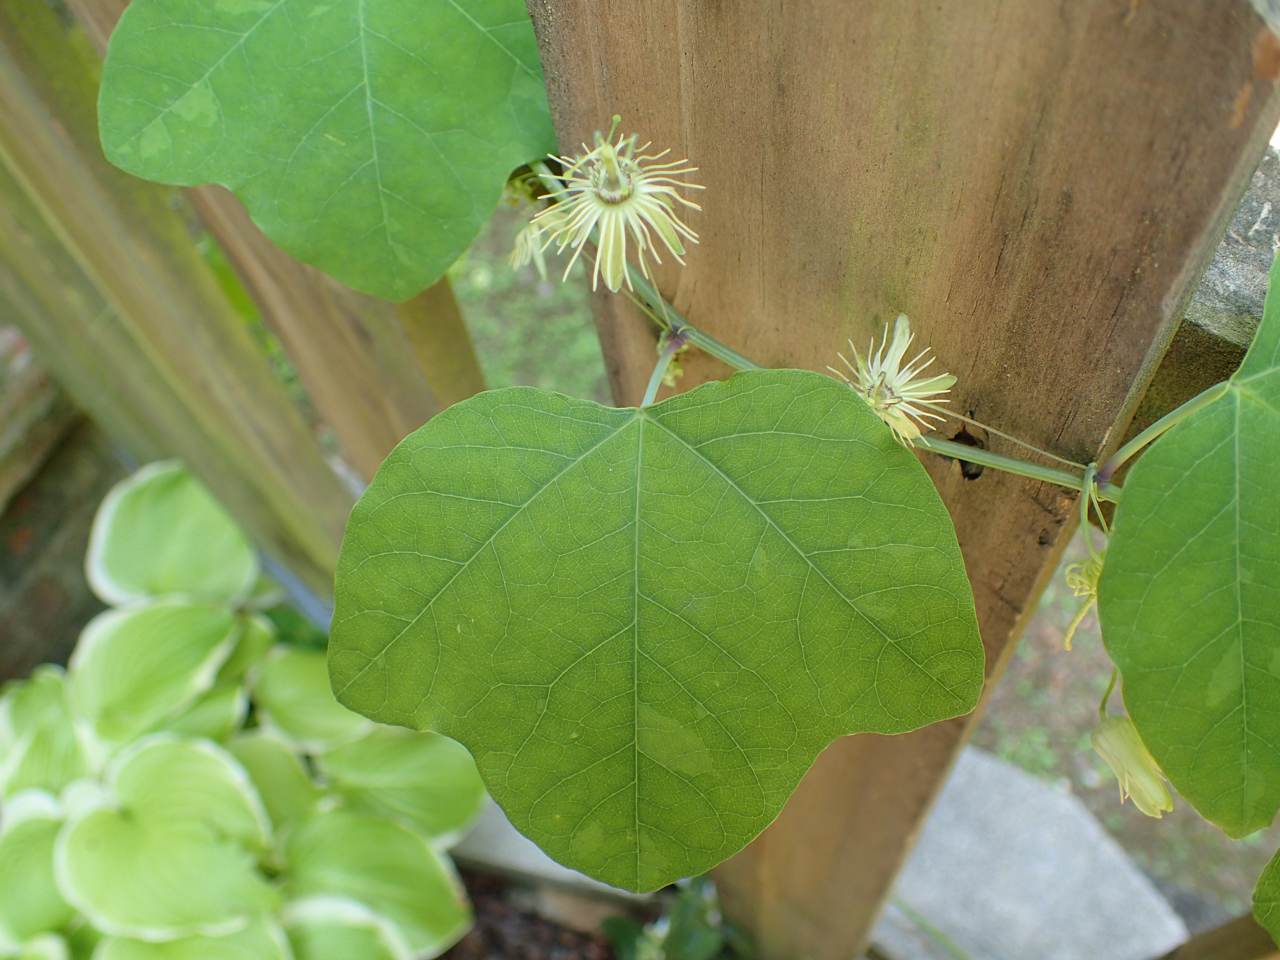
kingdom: Plantae
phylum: Tracheophyta
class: Magnoliopsida
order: Malpighiales
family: Passifloraceae
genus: Passiflora
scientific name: Passiflora lutea
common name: Yellow passionflower
